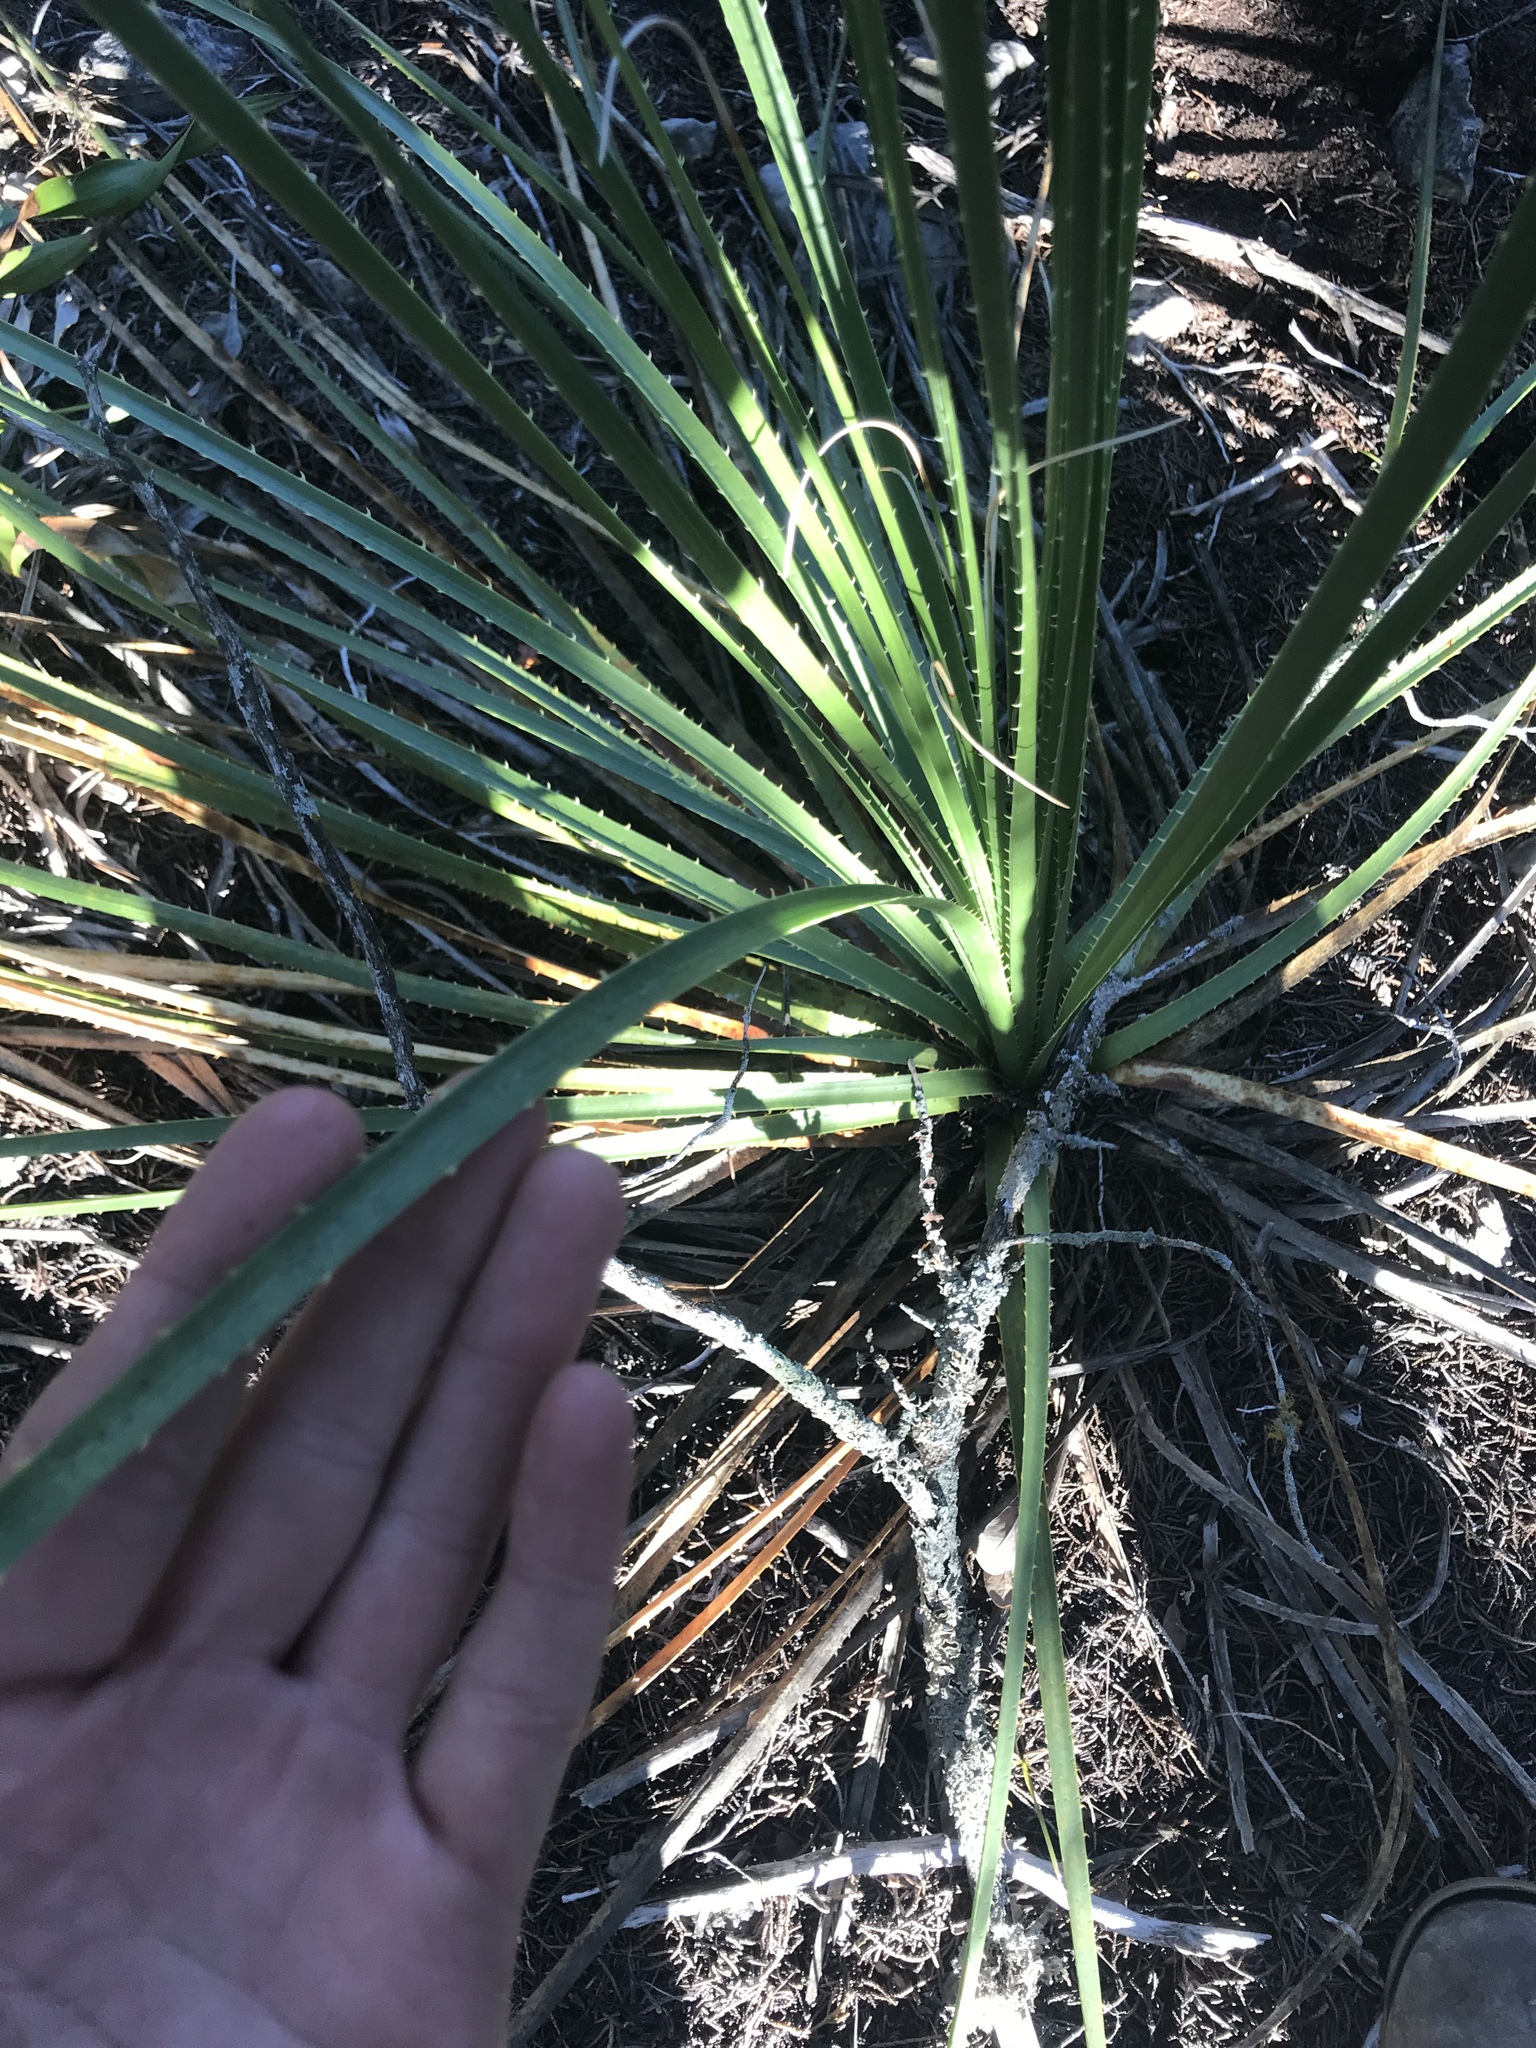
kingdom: Plantae
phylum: Tracheophyta
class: Liliopsida
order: Asparagales
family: Asparagaceae
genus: Dasylirion
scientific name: Dasylirion texanum
